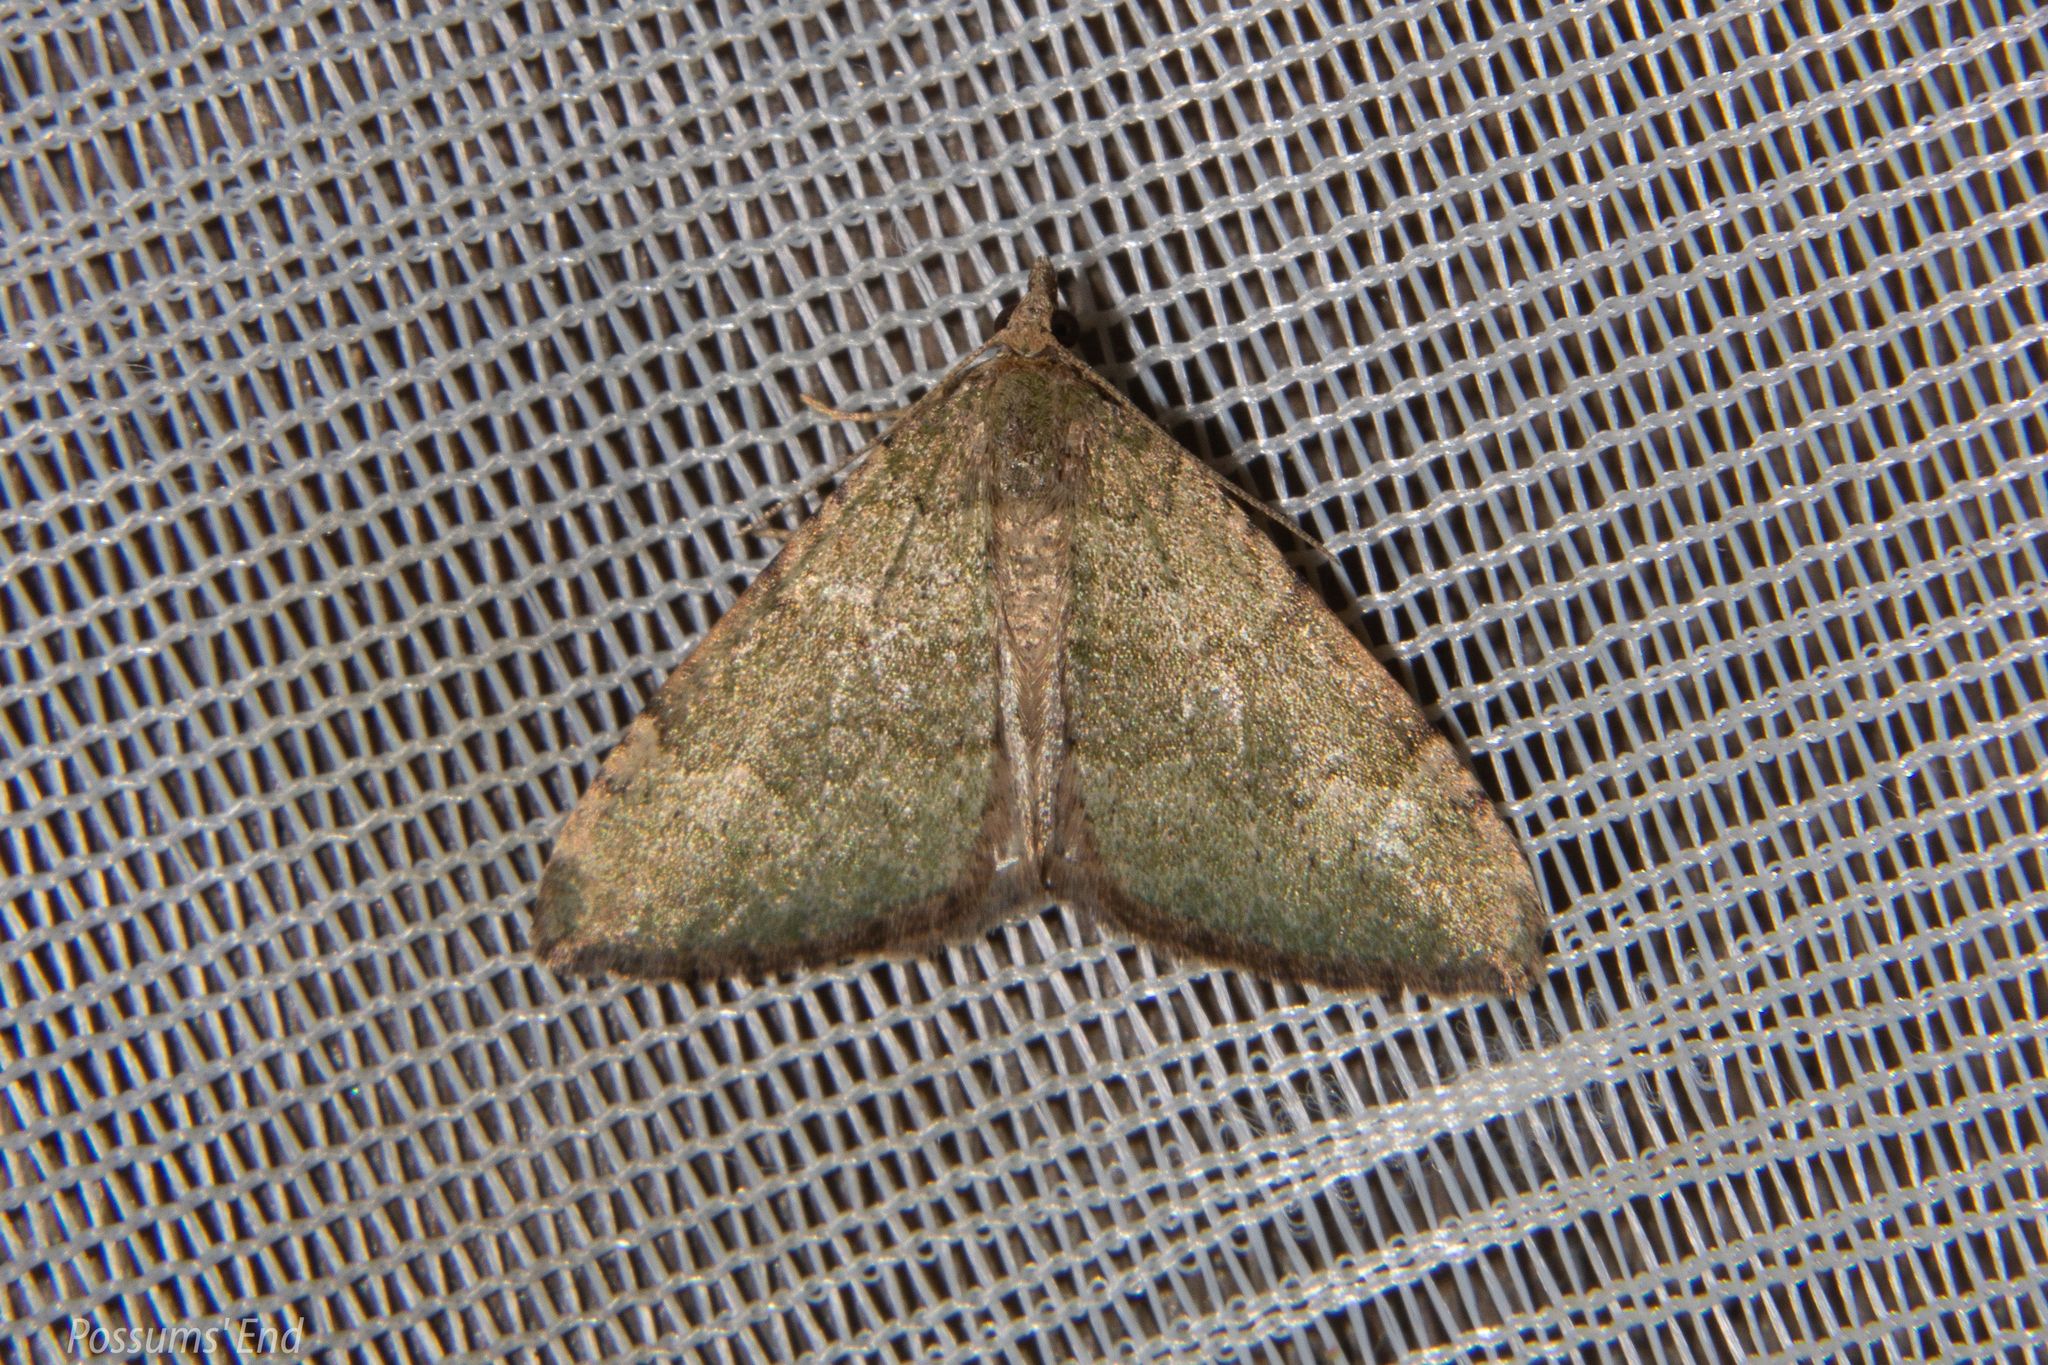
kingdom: Animalia
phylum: Arthropoda
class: Insecta
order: Lepidoptera
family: Geometridae
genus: Epyaxa
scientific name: Epyaxa rosearia
